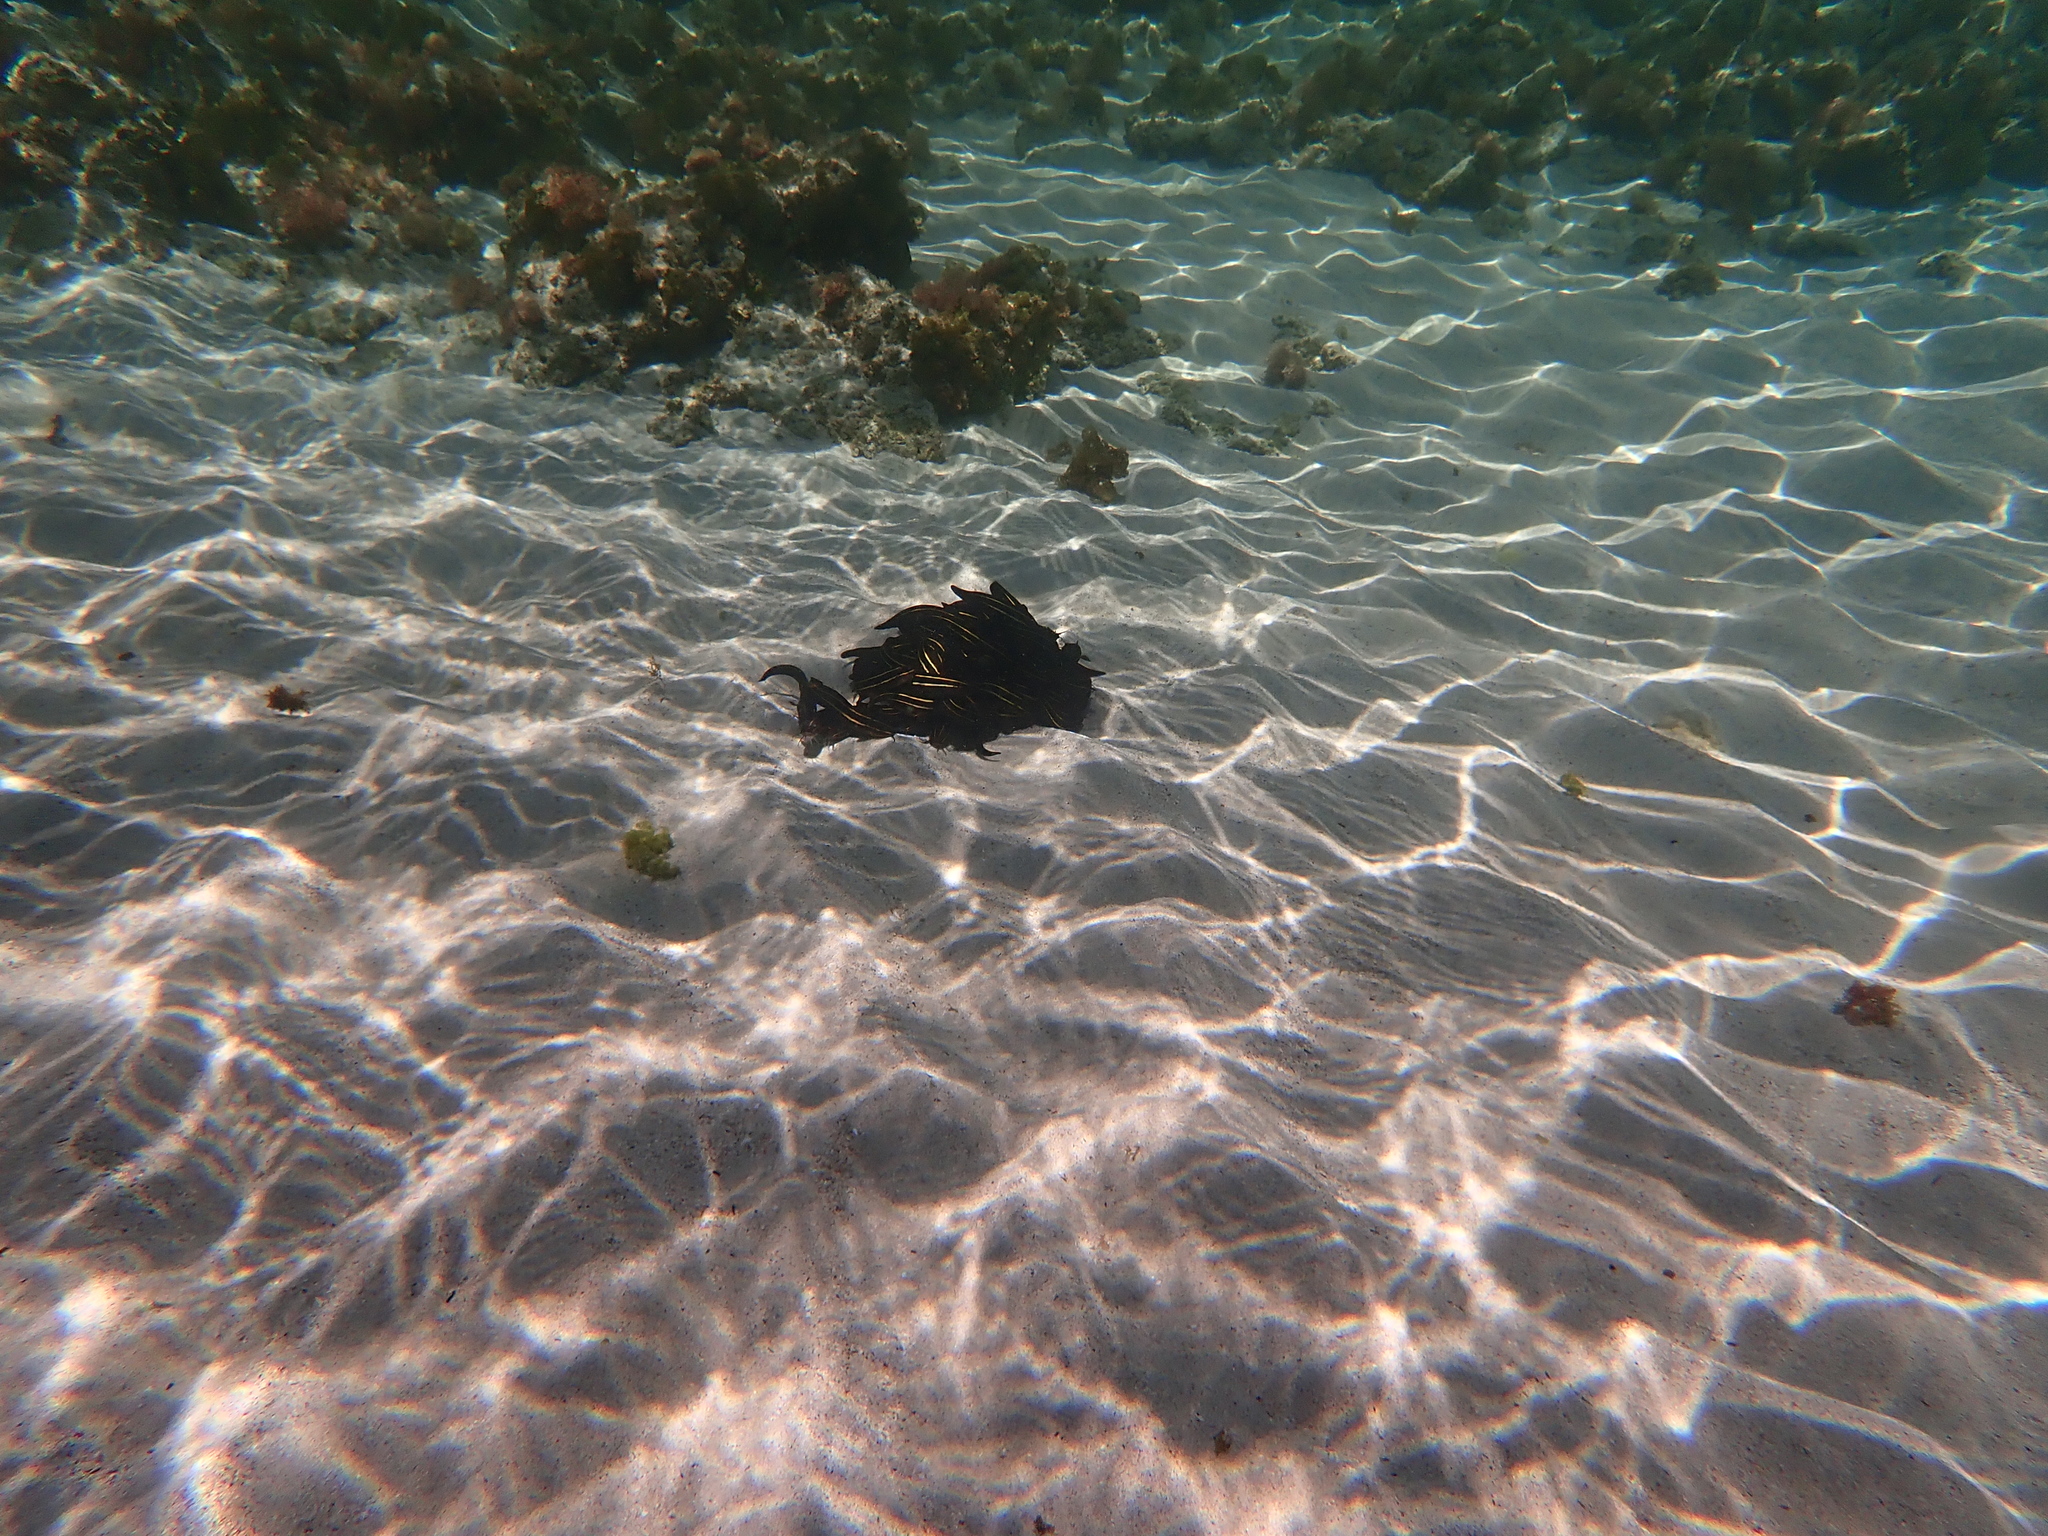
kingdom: Animalia
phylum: Chordata
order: Siluriformes
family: Plotosidae
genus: Plotosus
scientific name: Plotosus lineatus
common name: Striped eel catfish
